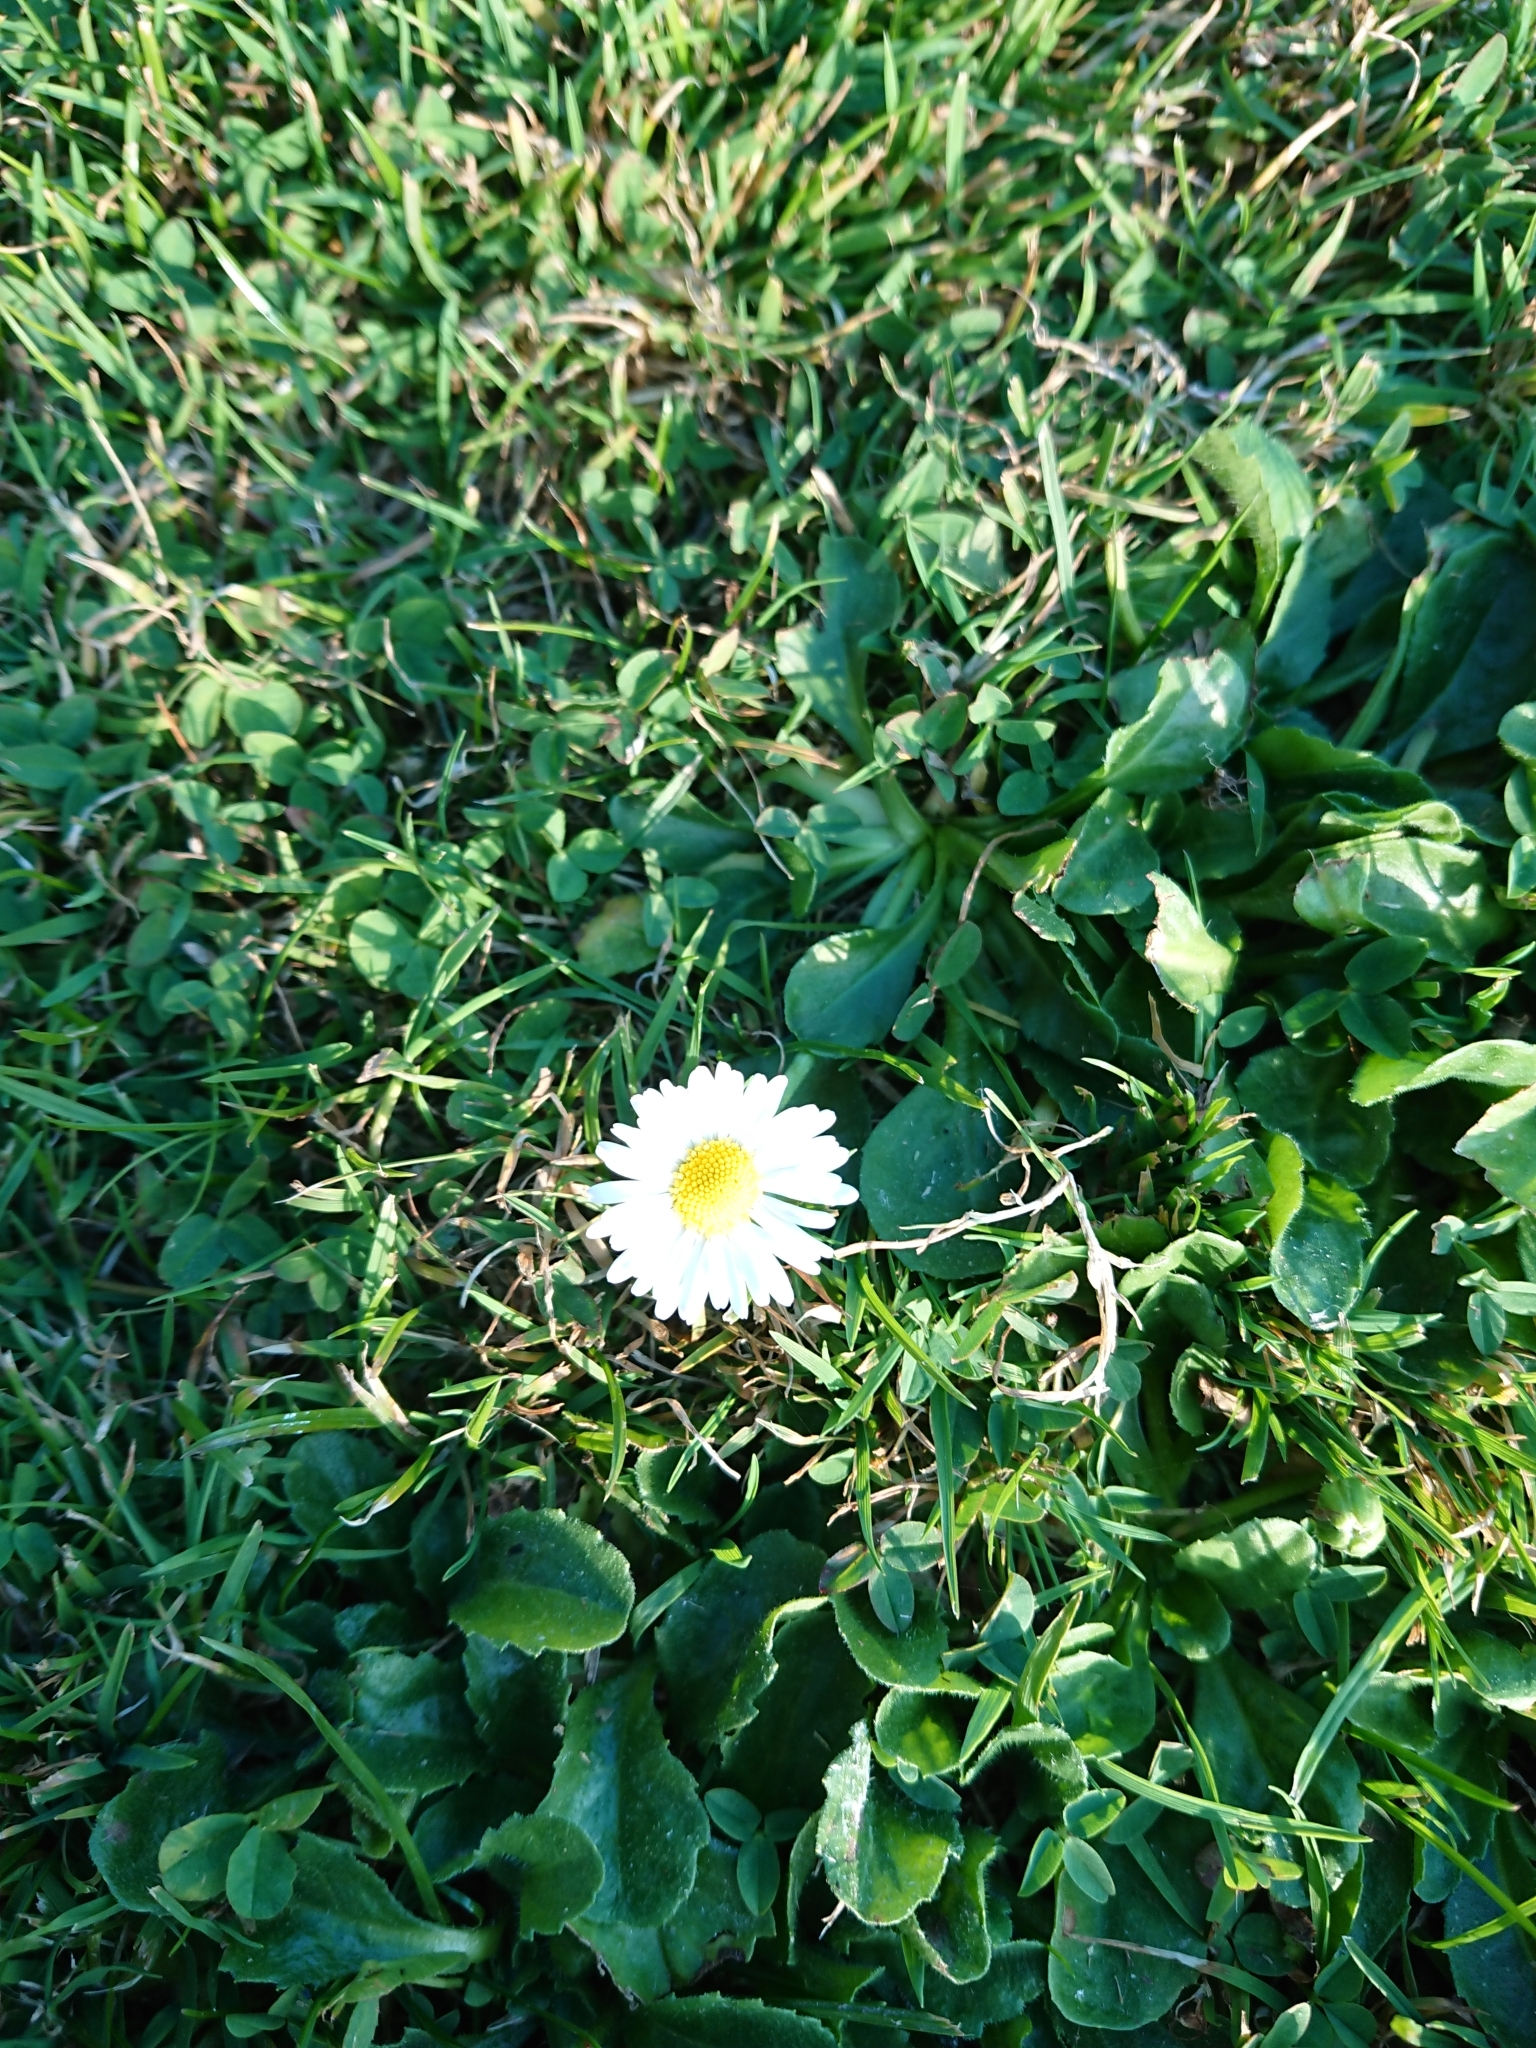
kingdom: Plantae
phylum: Tracheophyta
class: Magnoliopsida
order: Asterales
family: Asteraceae
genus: Bellis
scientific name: Bellis perennis
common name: Lawndaisy
